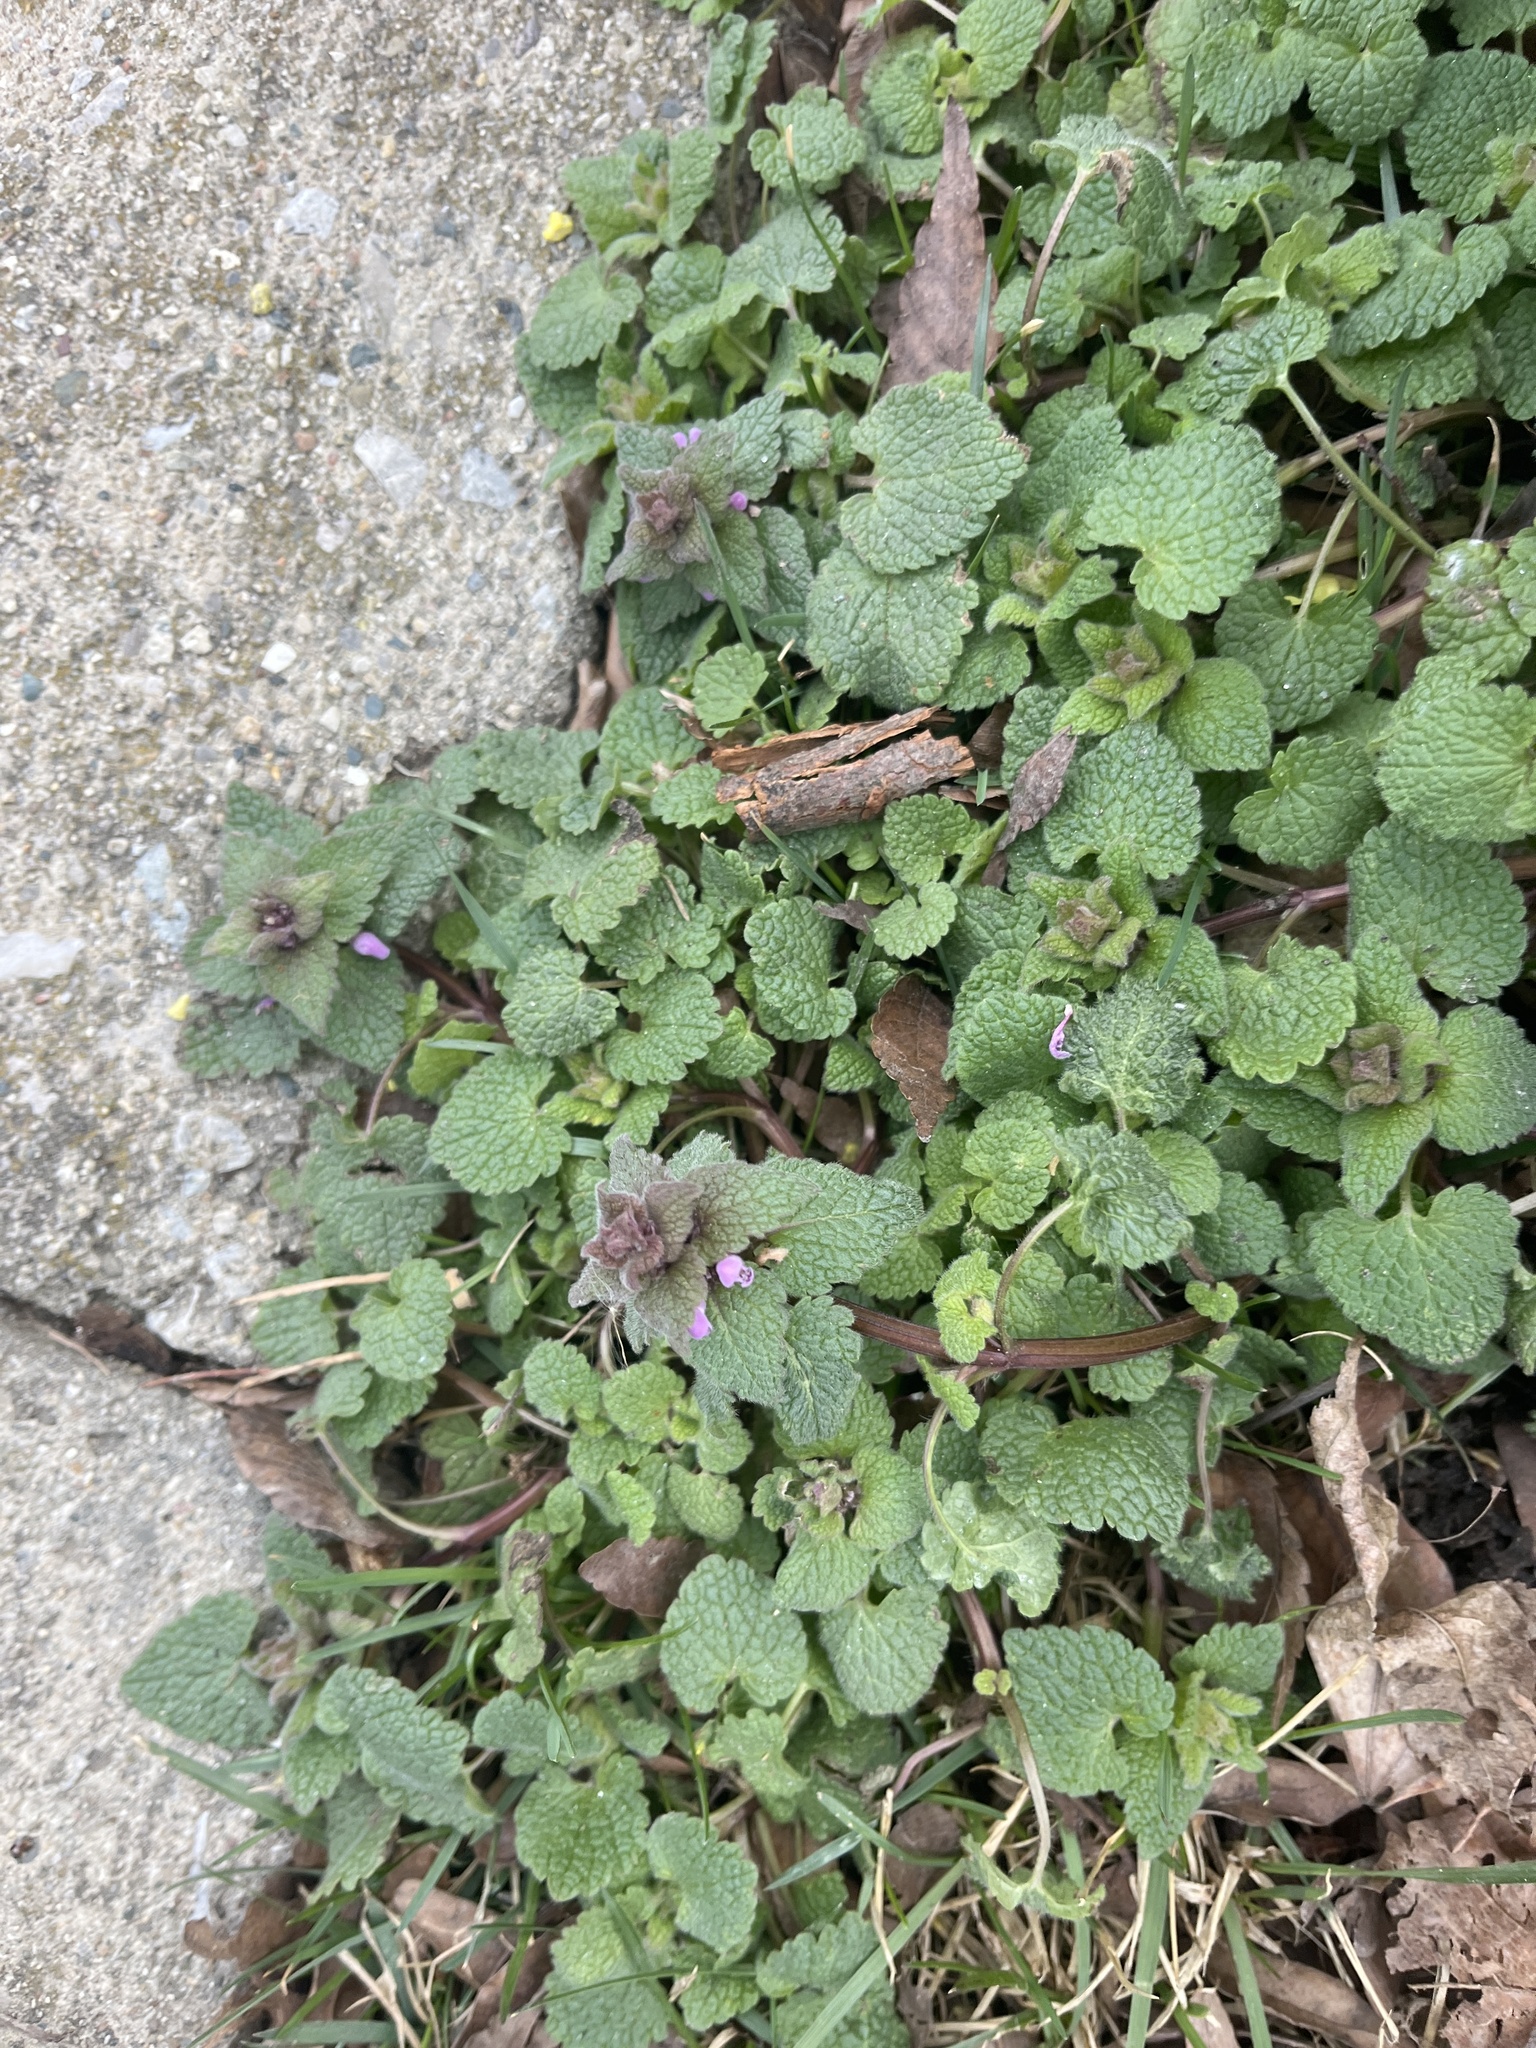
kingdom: Plantae
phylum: Tracheophyta
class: Magnoliopsida
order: Lamiales
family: Lamiaceae
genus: Lamium
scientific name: Lamium purpureum
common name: Red dead-nettle
